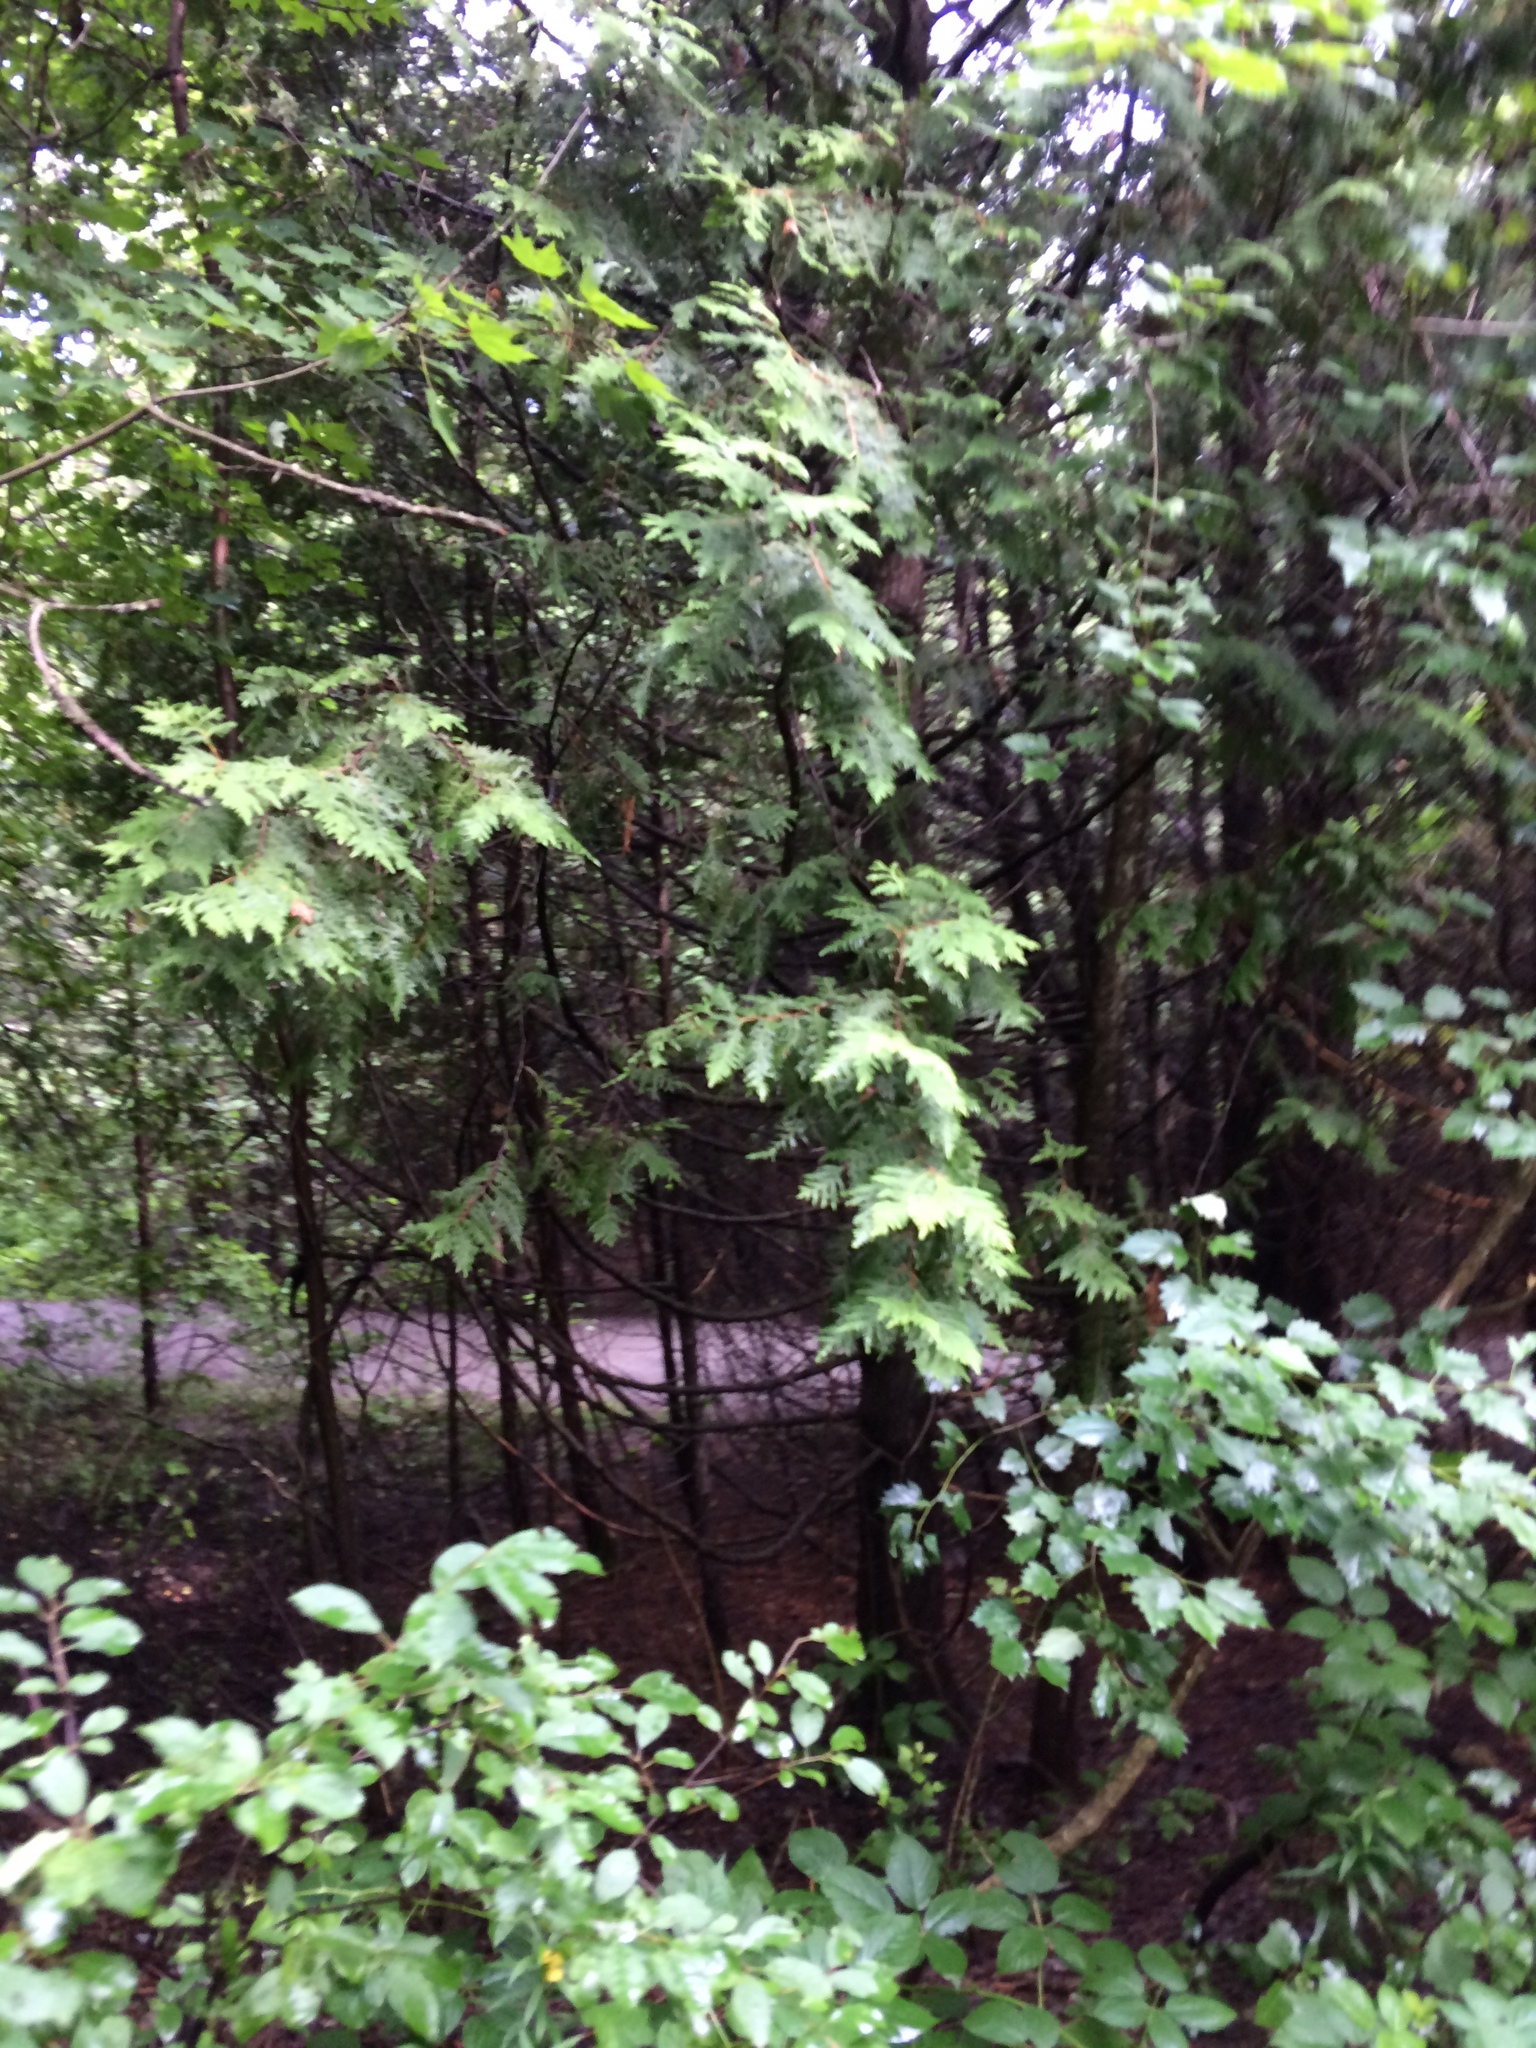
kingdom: Plantae
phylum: Tracheophyta
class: Pinopsida
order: Pinales
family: Cupressaceae
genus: Thuja
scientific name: Thuja occidentalis
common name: Northern white-cedar
